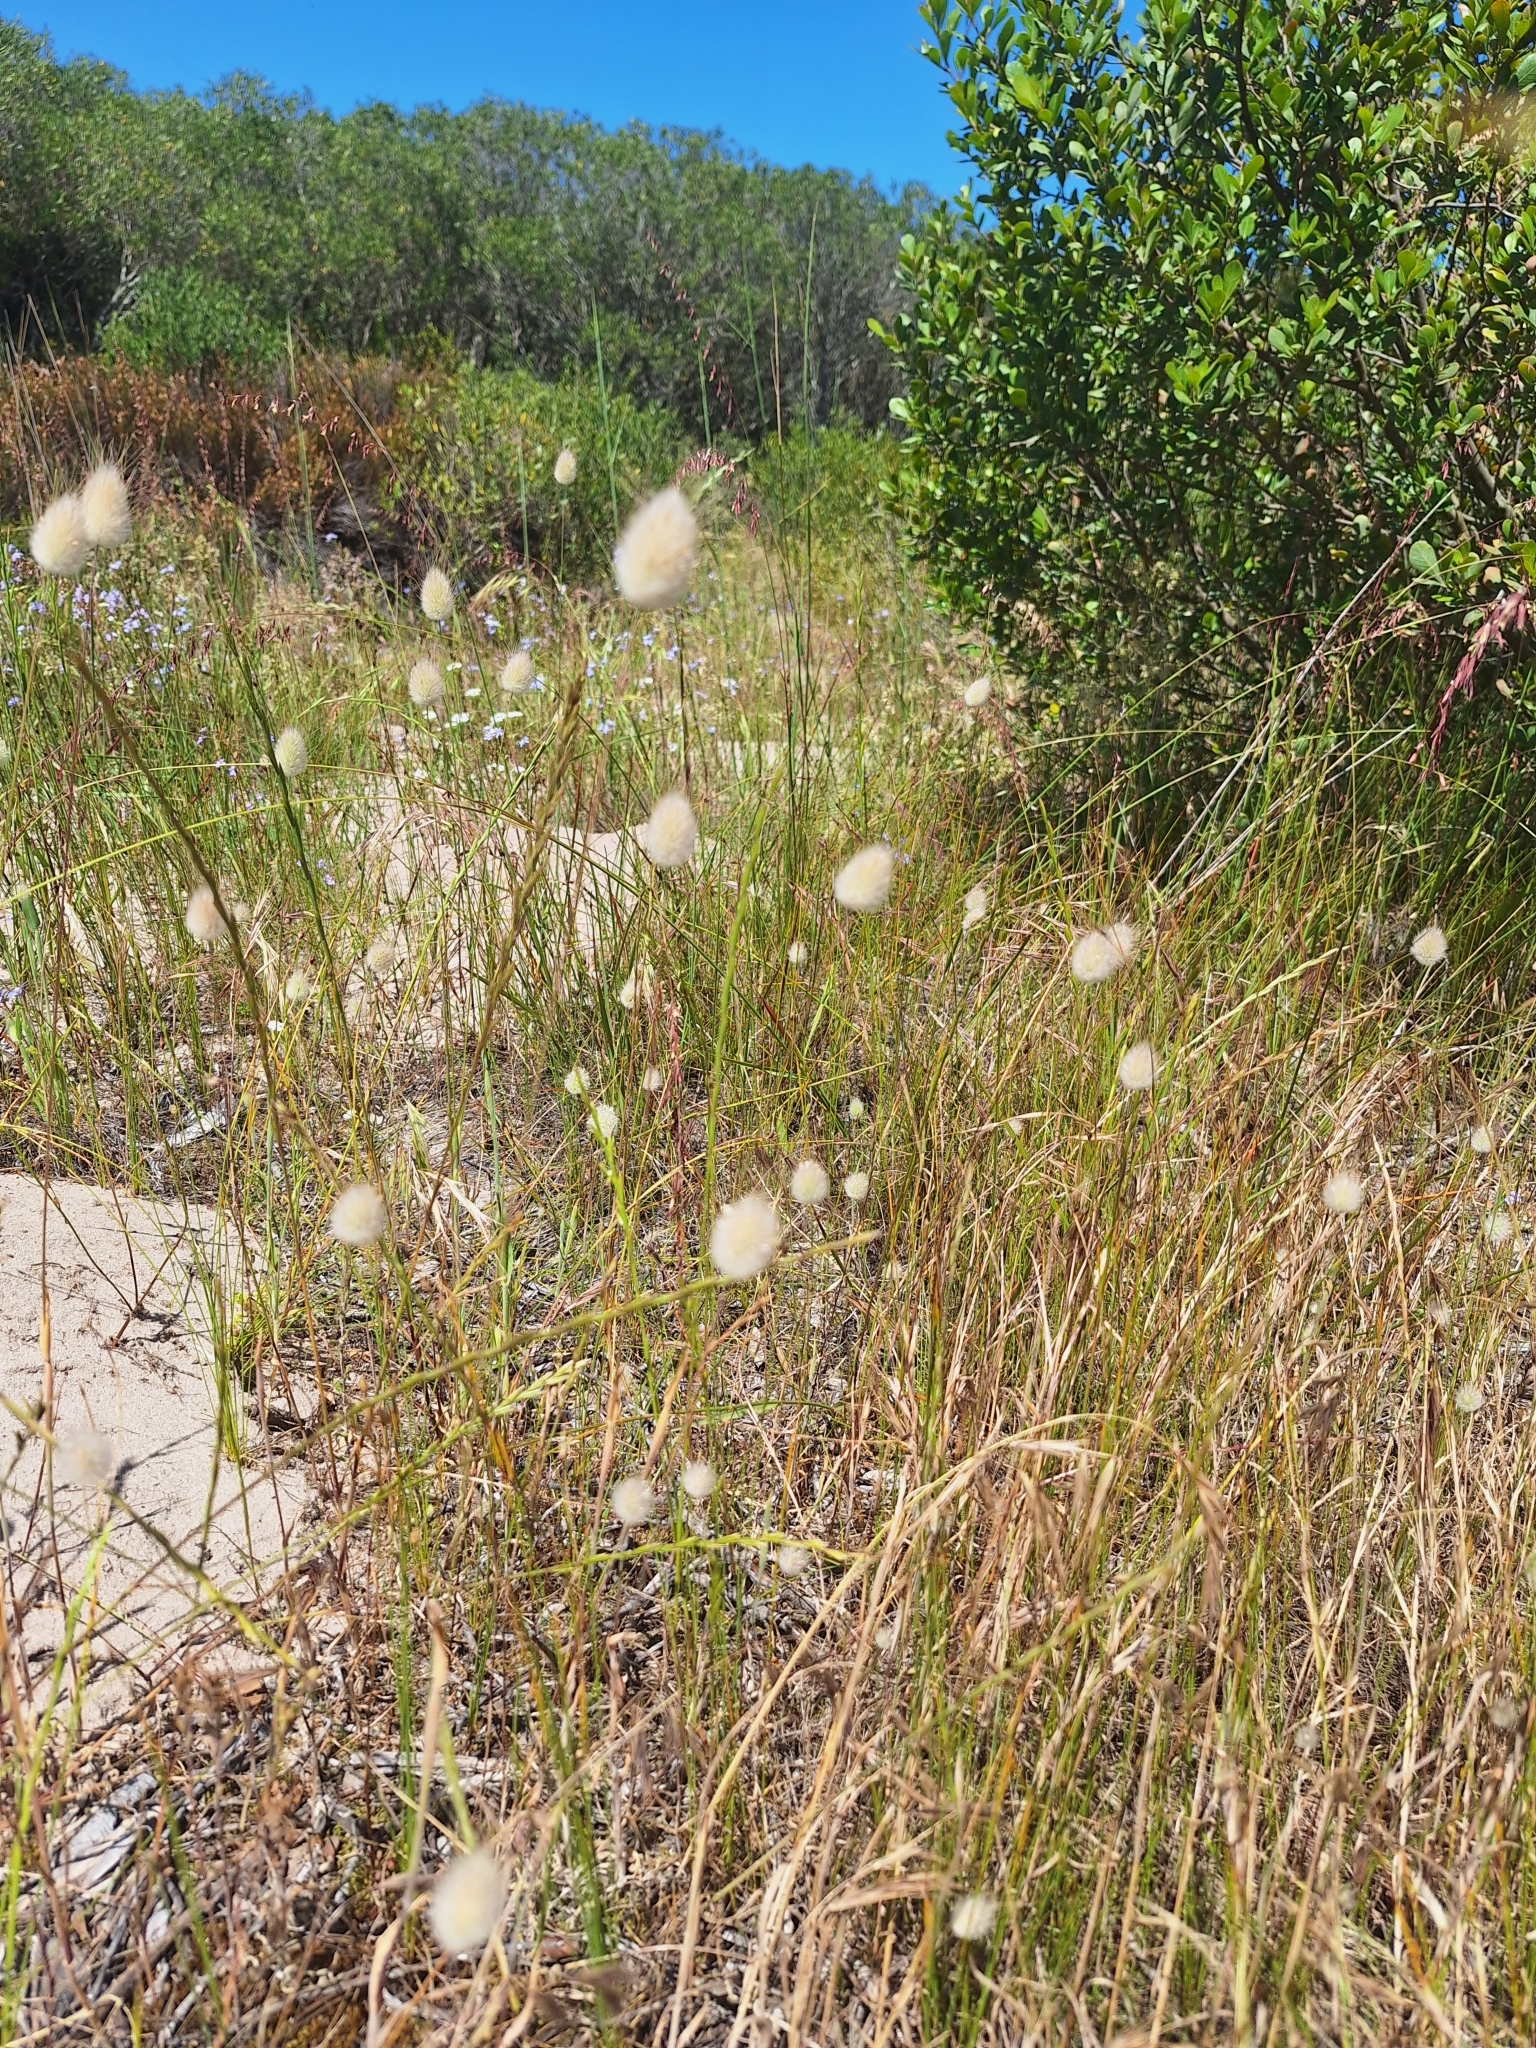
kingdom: Plantae
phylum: Tracheophyta
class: Liliopsida
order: Poales
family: Poaceae
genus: Lagurus
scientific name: Lagurus ovatus
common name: Hare's-tail
